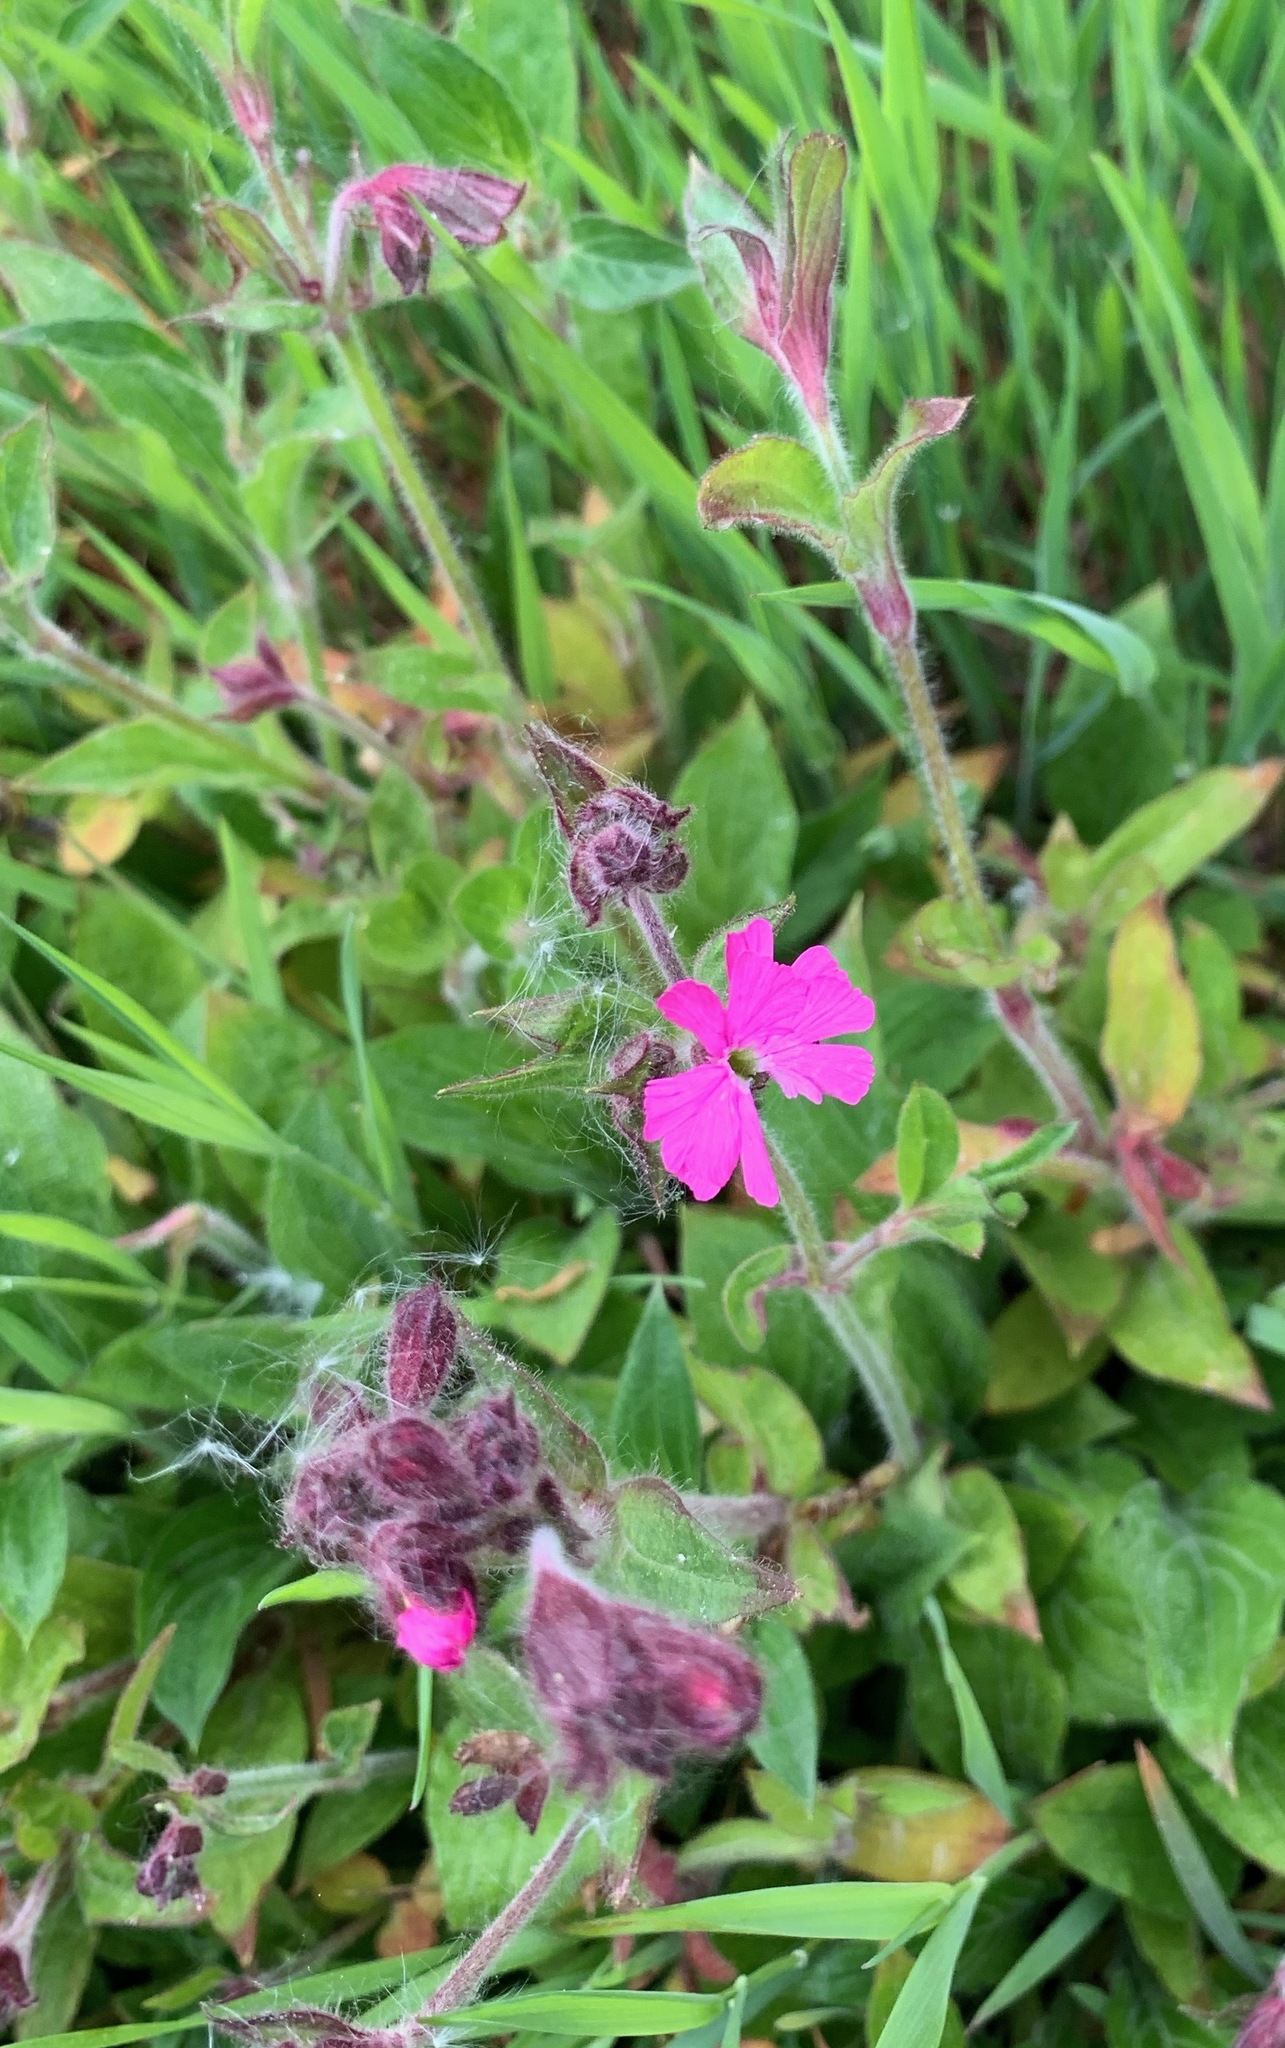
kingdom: Plantae
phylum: Tracheophyta
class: Magnoliopsida
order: Caryophyllales
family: Caryophyllaceae
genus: Silene
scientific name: Silene dioica
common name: Red campion
